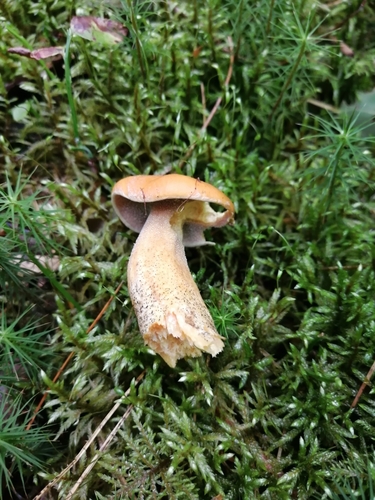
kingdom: Fungi
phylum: Basidiomycota
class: Agaricomycetes
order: Boletales
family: Suillaceae
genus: Suillus
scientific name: Suillus variegatus
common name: Velvet bolete
